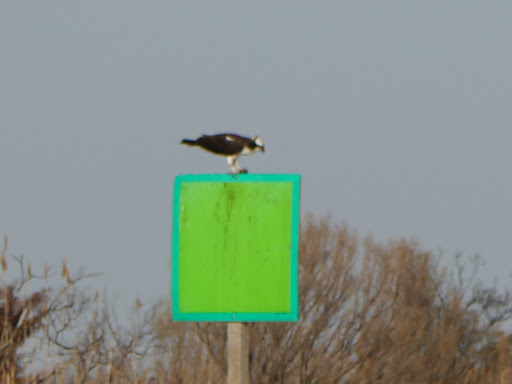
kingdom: Animalia
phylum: Chordata
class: Aves
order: Accipitriformes
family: Pandionidae
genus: Pandion
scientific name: Pandion haliaetus
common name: Osprey
